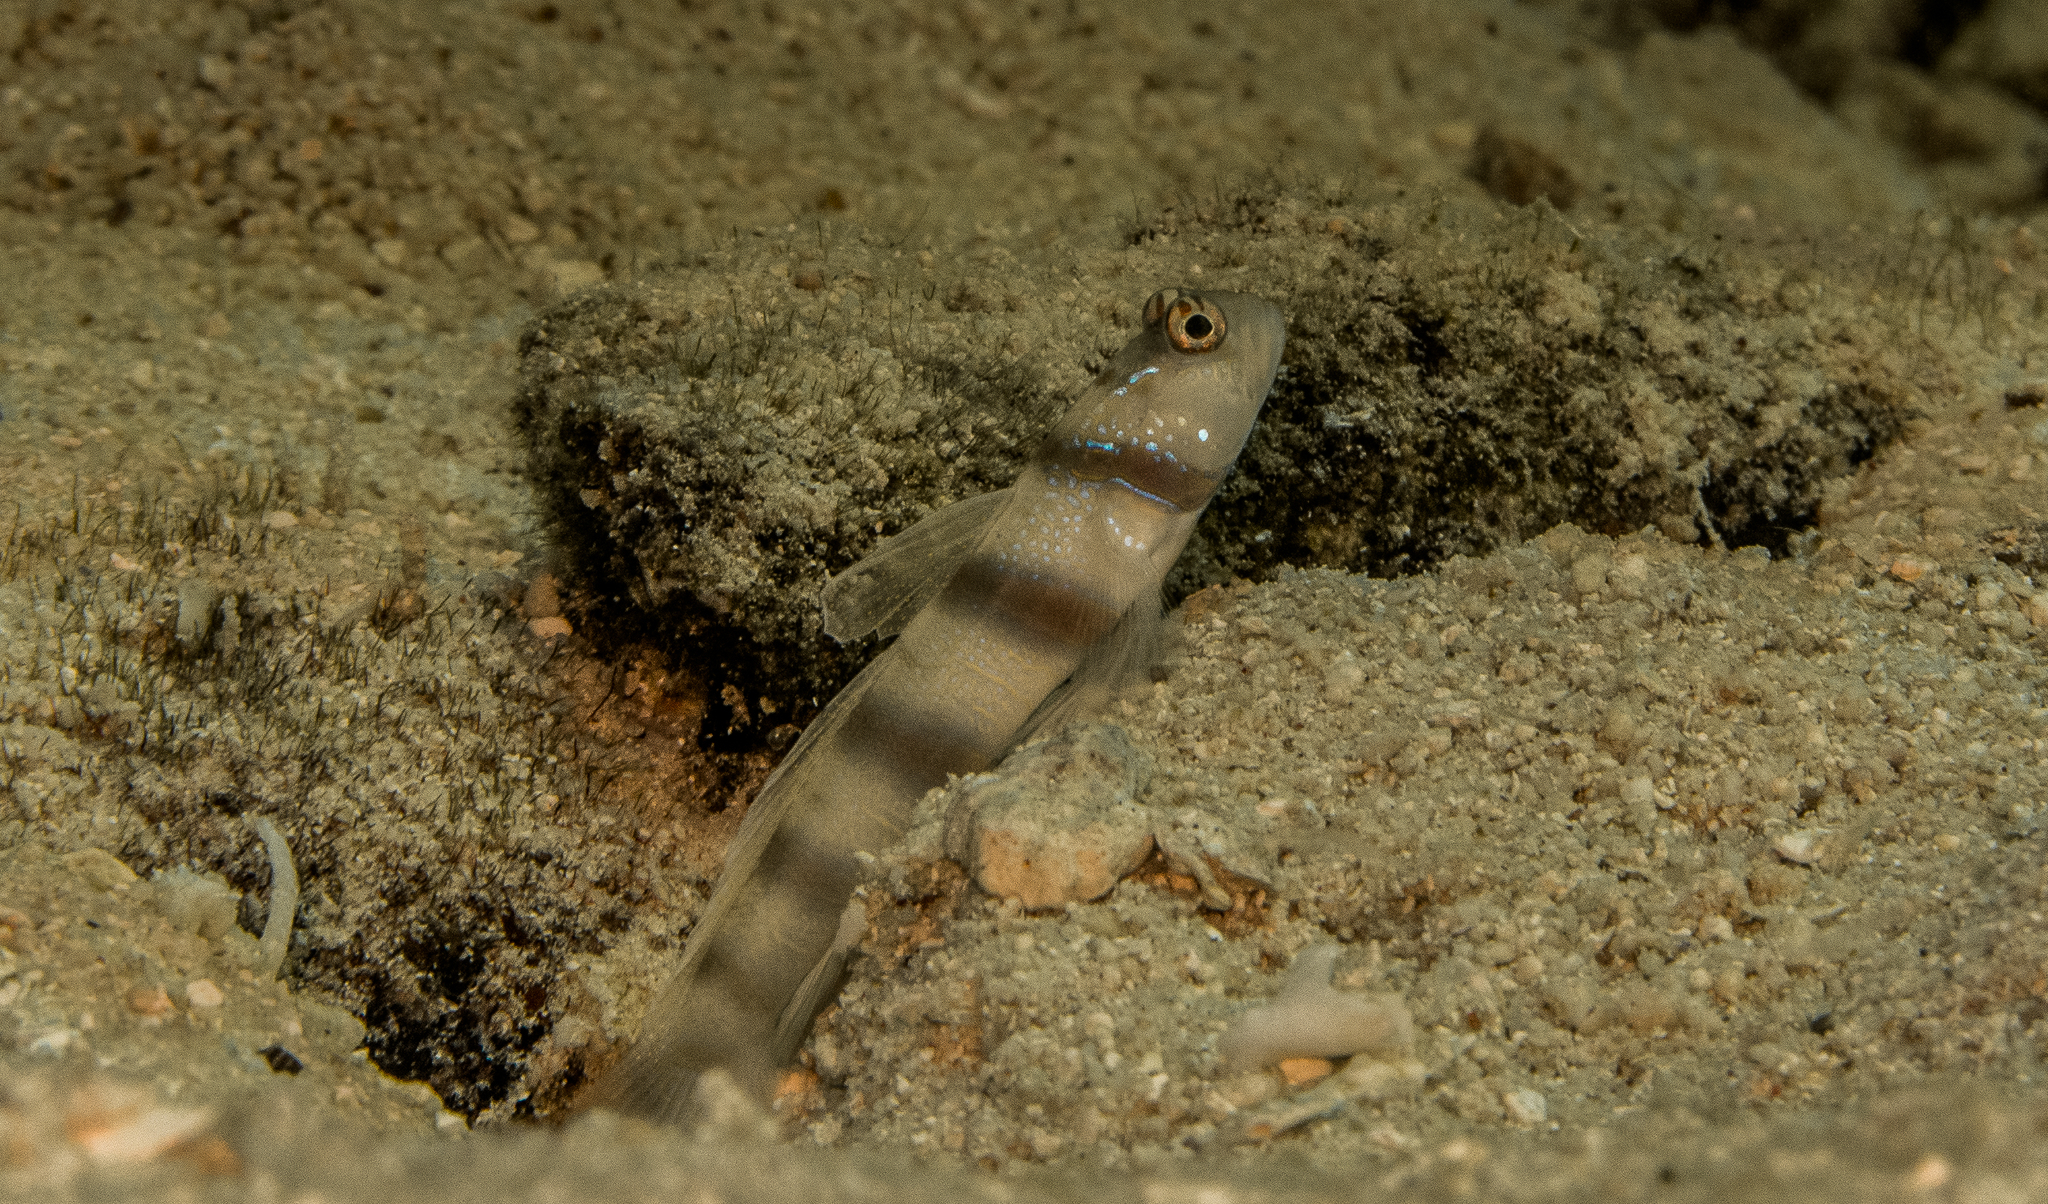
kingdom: Animalia
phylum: Chordata
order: Perciformes
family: Gobiidae
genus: Amblyeleotris
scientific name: Amblyeleotris steinitzi
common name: Steinitz' prawn-goby
